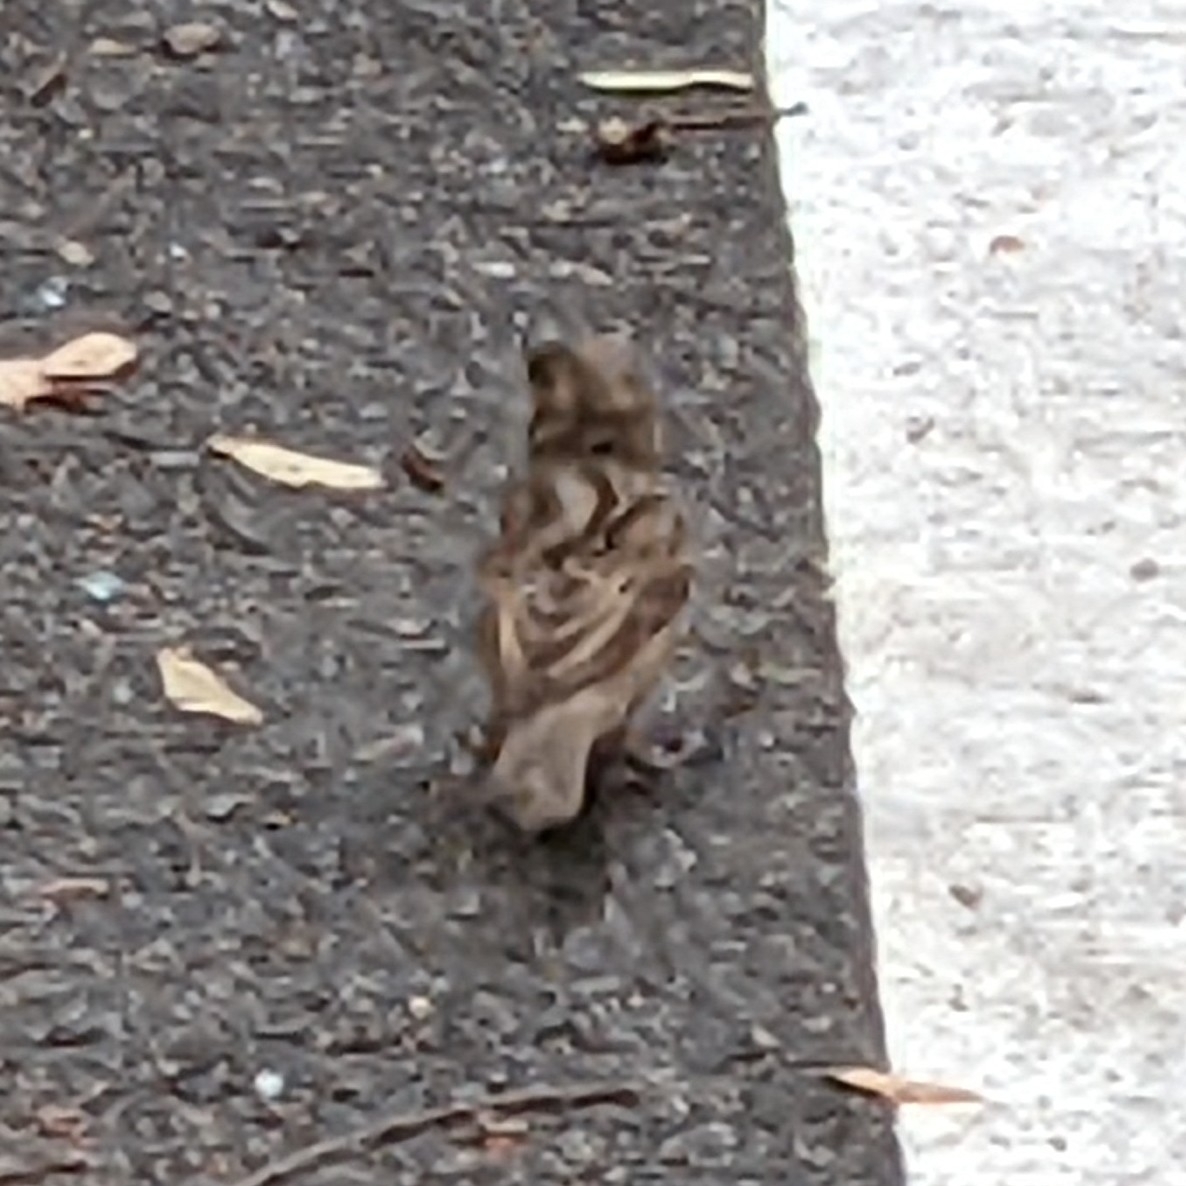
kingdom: Animalia
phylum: Chordata
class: Aves
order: Passeriformes
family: Passeridae
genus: Passer
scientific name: Passer domesticus
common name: House sparrow
